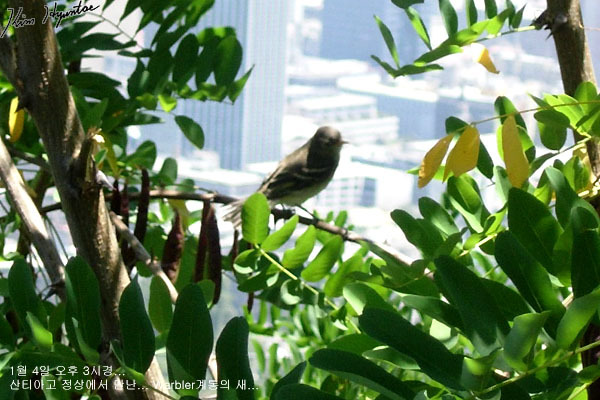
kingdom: Animalia
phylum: Chordata
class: Aves
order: Passeriformes
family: Tyrannidae
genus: Elaenia
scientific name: Elaenia albiceps
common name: White-crested elaenia
